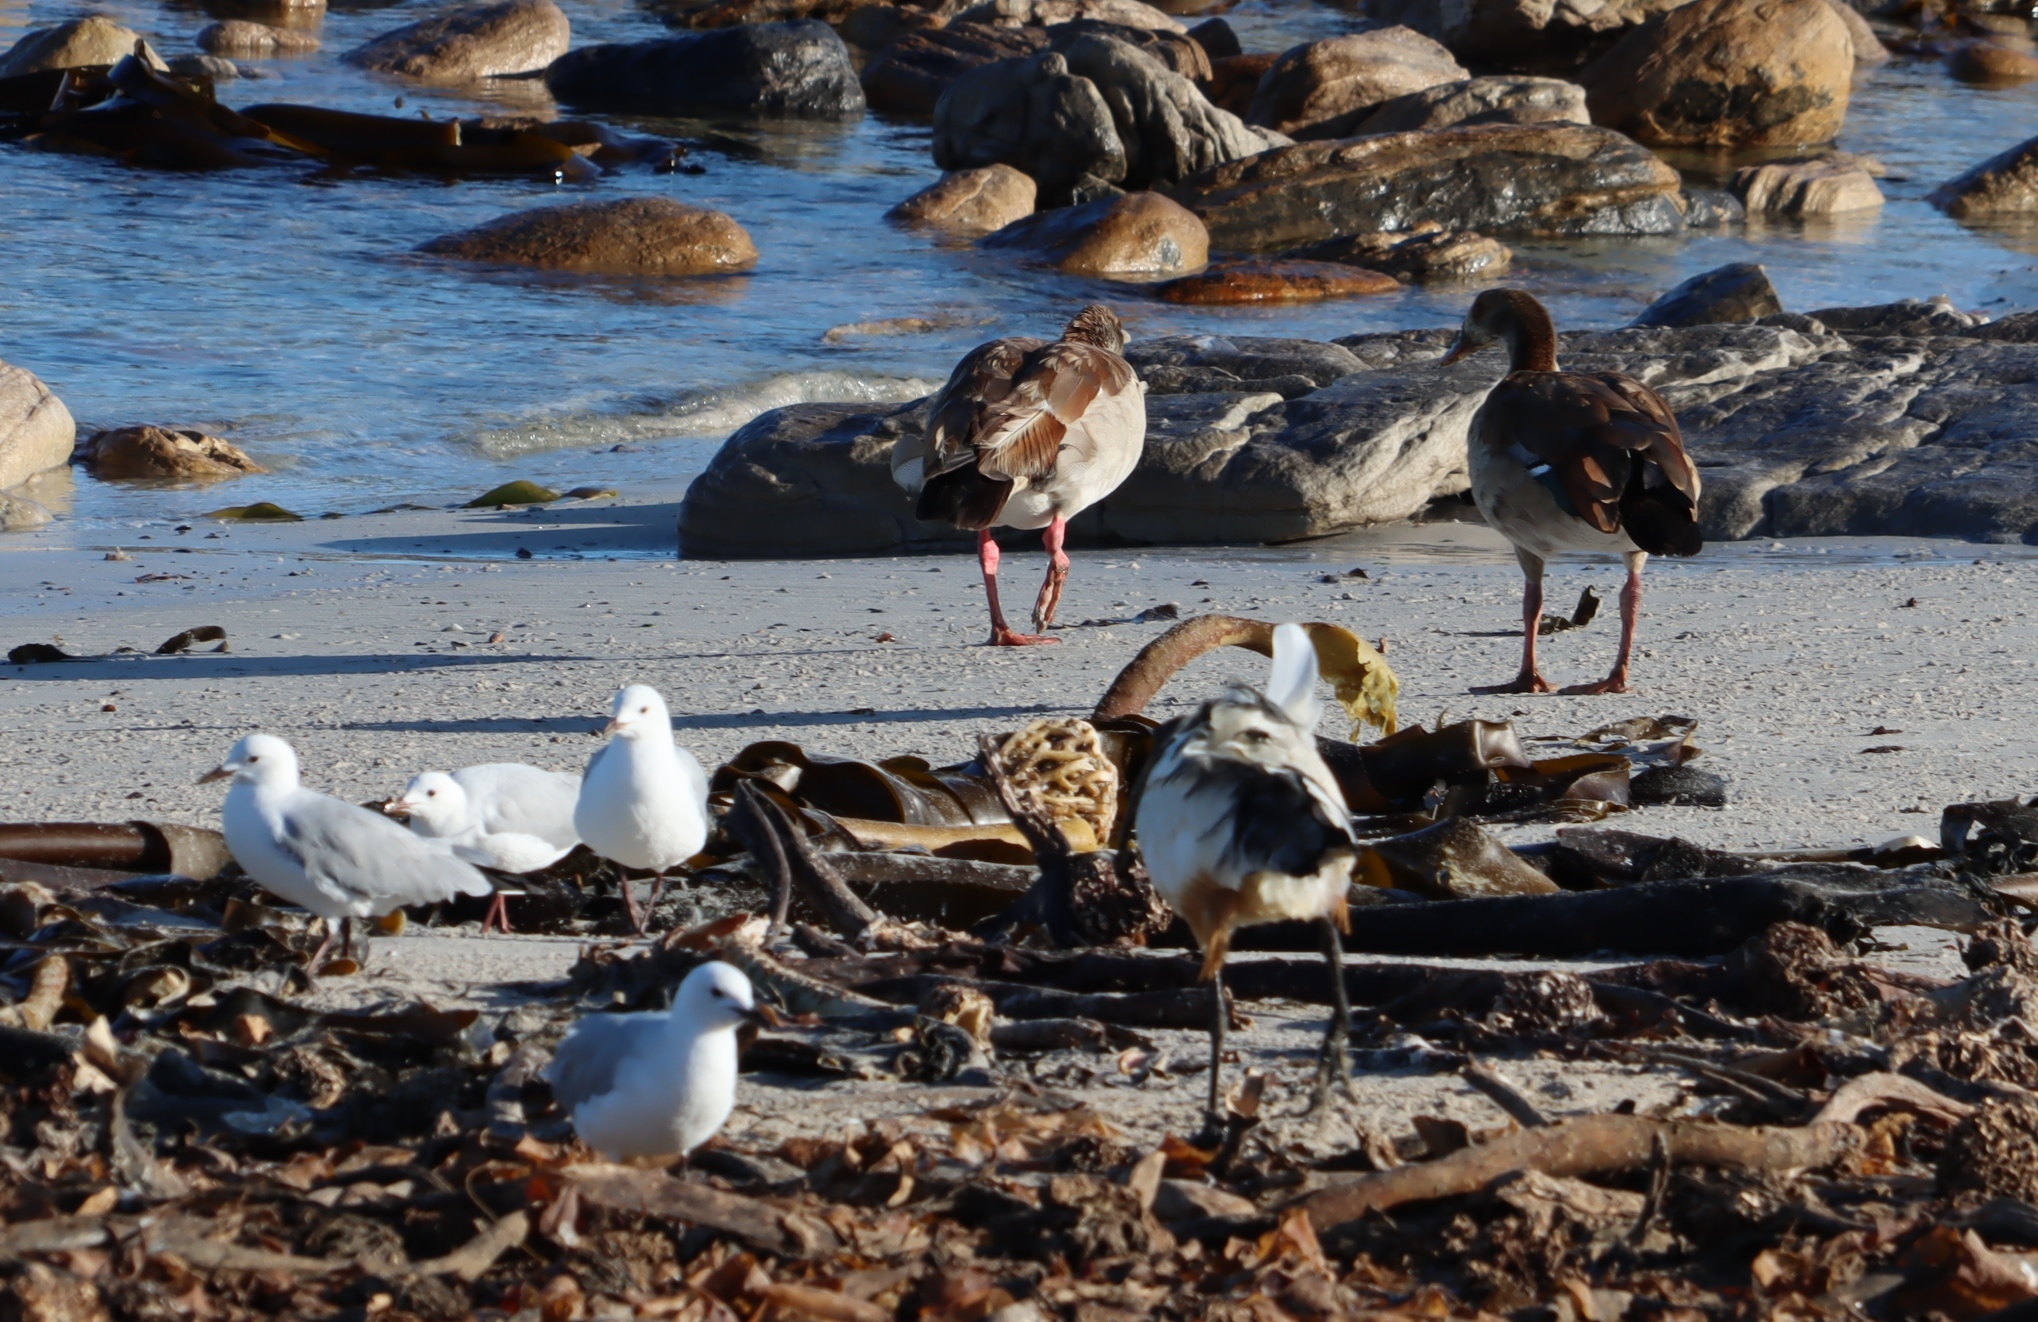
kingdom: Animalia
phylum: Chordata
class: Aves
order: Anseriformes
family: Anatidae
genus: Alopochen
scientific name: Alopochen aegyptiaca
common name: Egyptian goose
